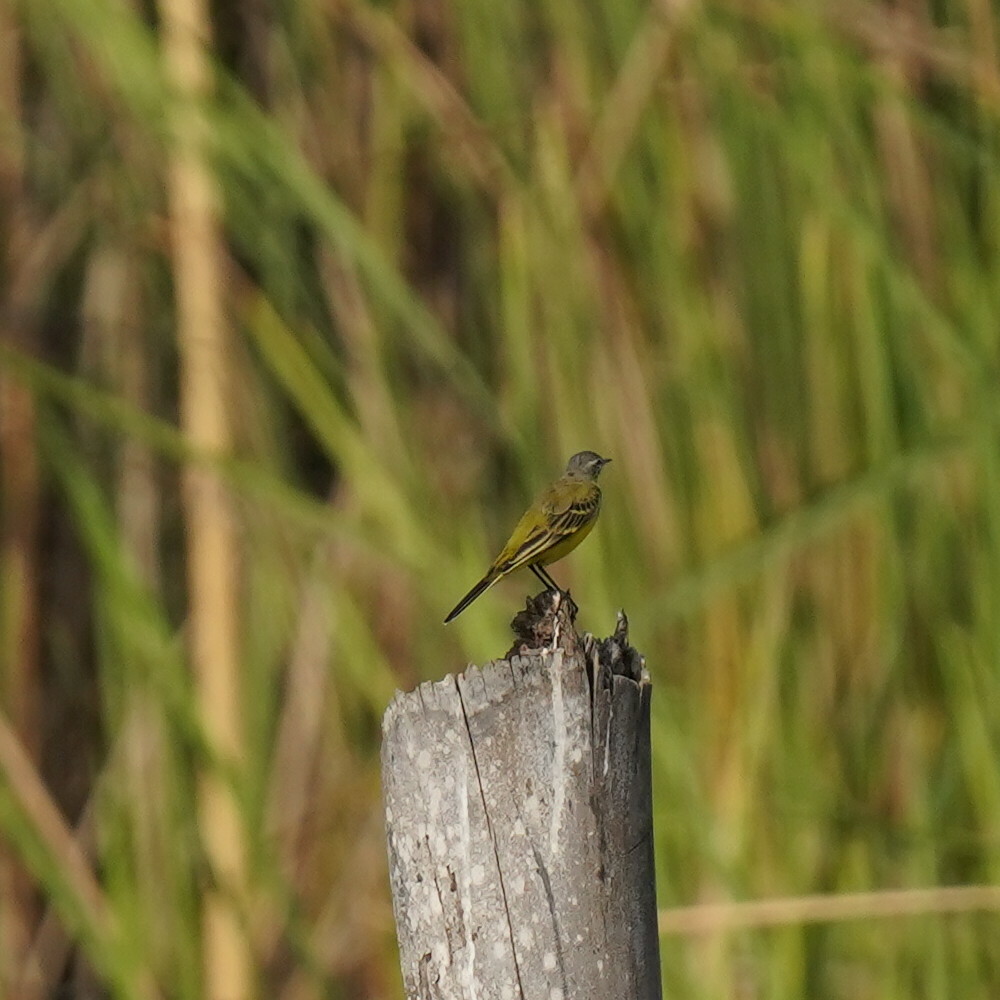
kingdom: Animalia
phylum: Chordata
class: Aves
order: Passeriformes
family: Motacillidae
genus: Motacilla
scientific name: Motacilla flava
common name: Western yellow wagtail
